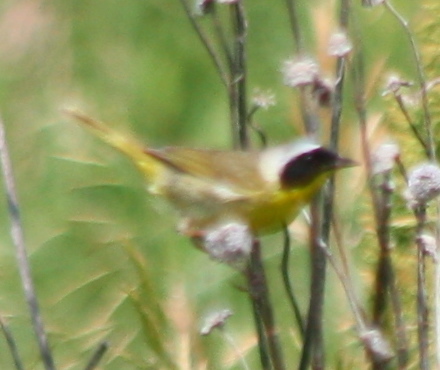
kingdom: Animalia
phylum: Chordata
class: Aves
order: Passeriformes
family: Parulidae
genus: Geothlypis
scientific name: Geothlypis trichas
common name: Common yellowthroat
